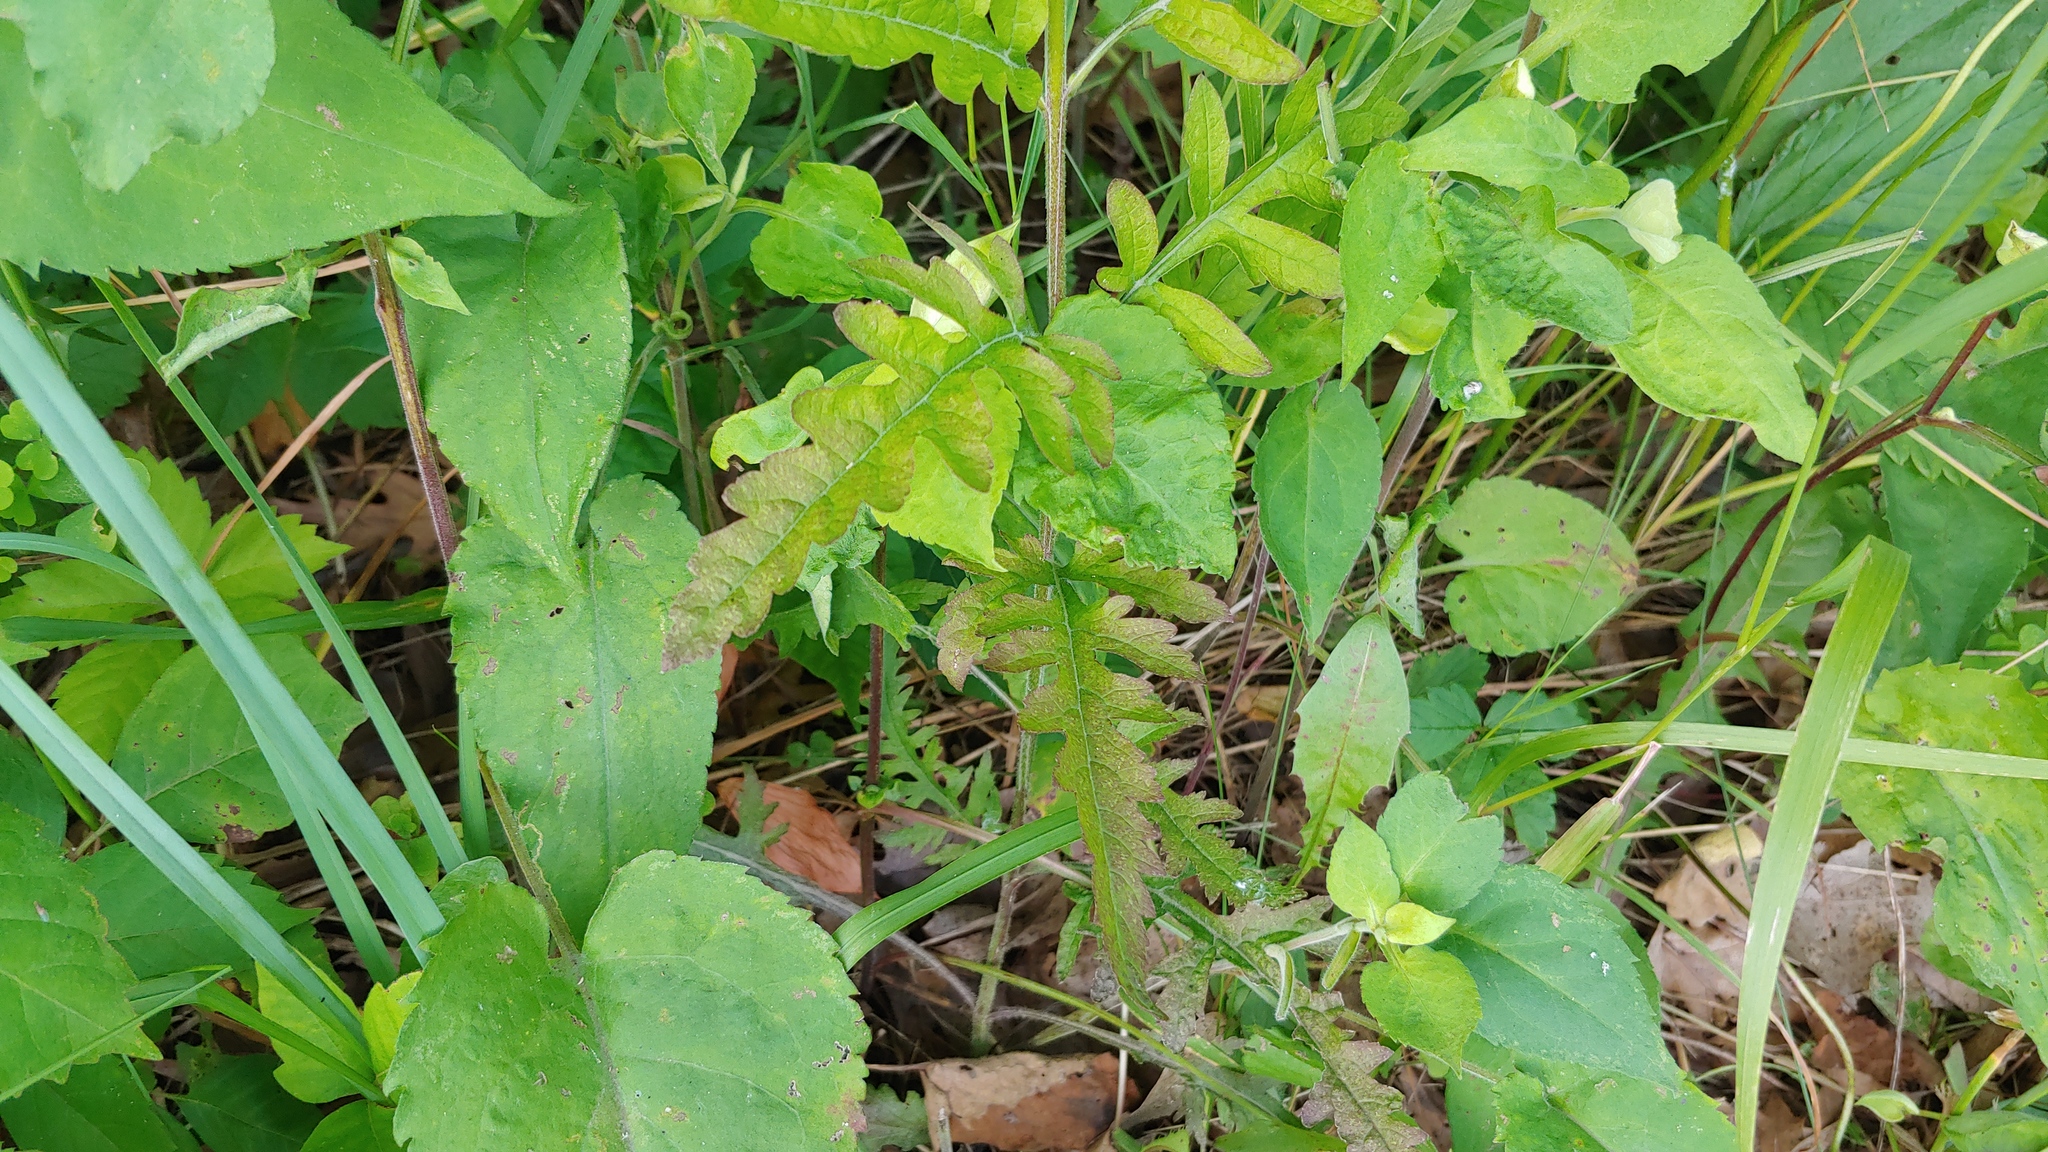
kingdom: Plantae
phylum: Tracheophyta
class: Magnoliopsida
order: Lamiales
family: Orobanchaceae
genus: Dasistoma
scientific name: Dasistoma macrophyllum
